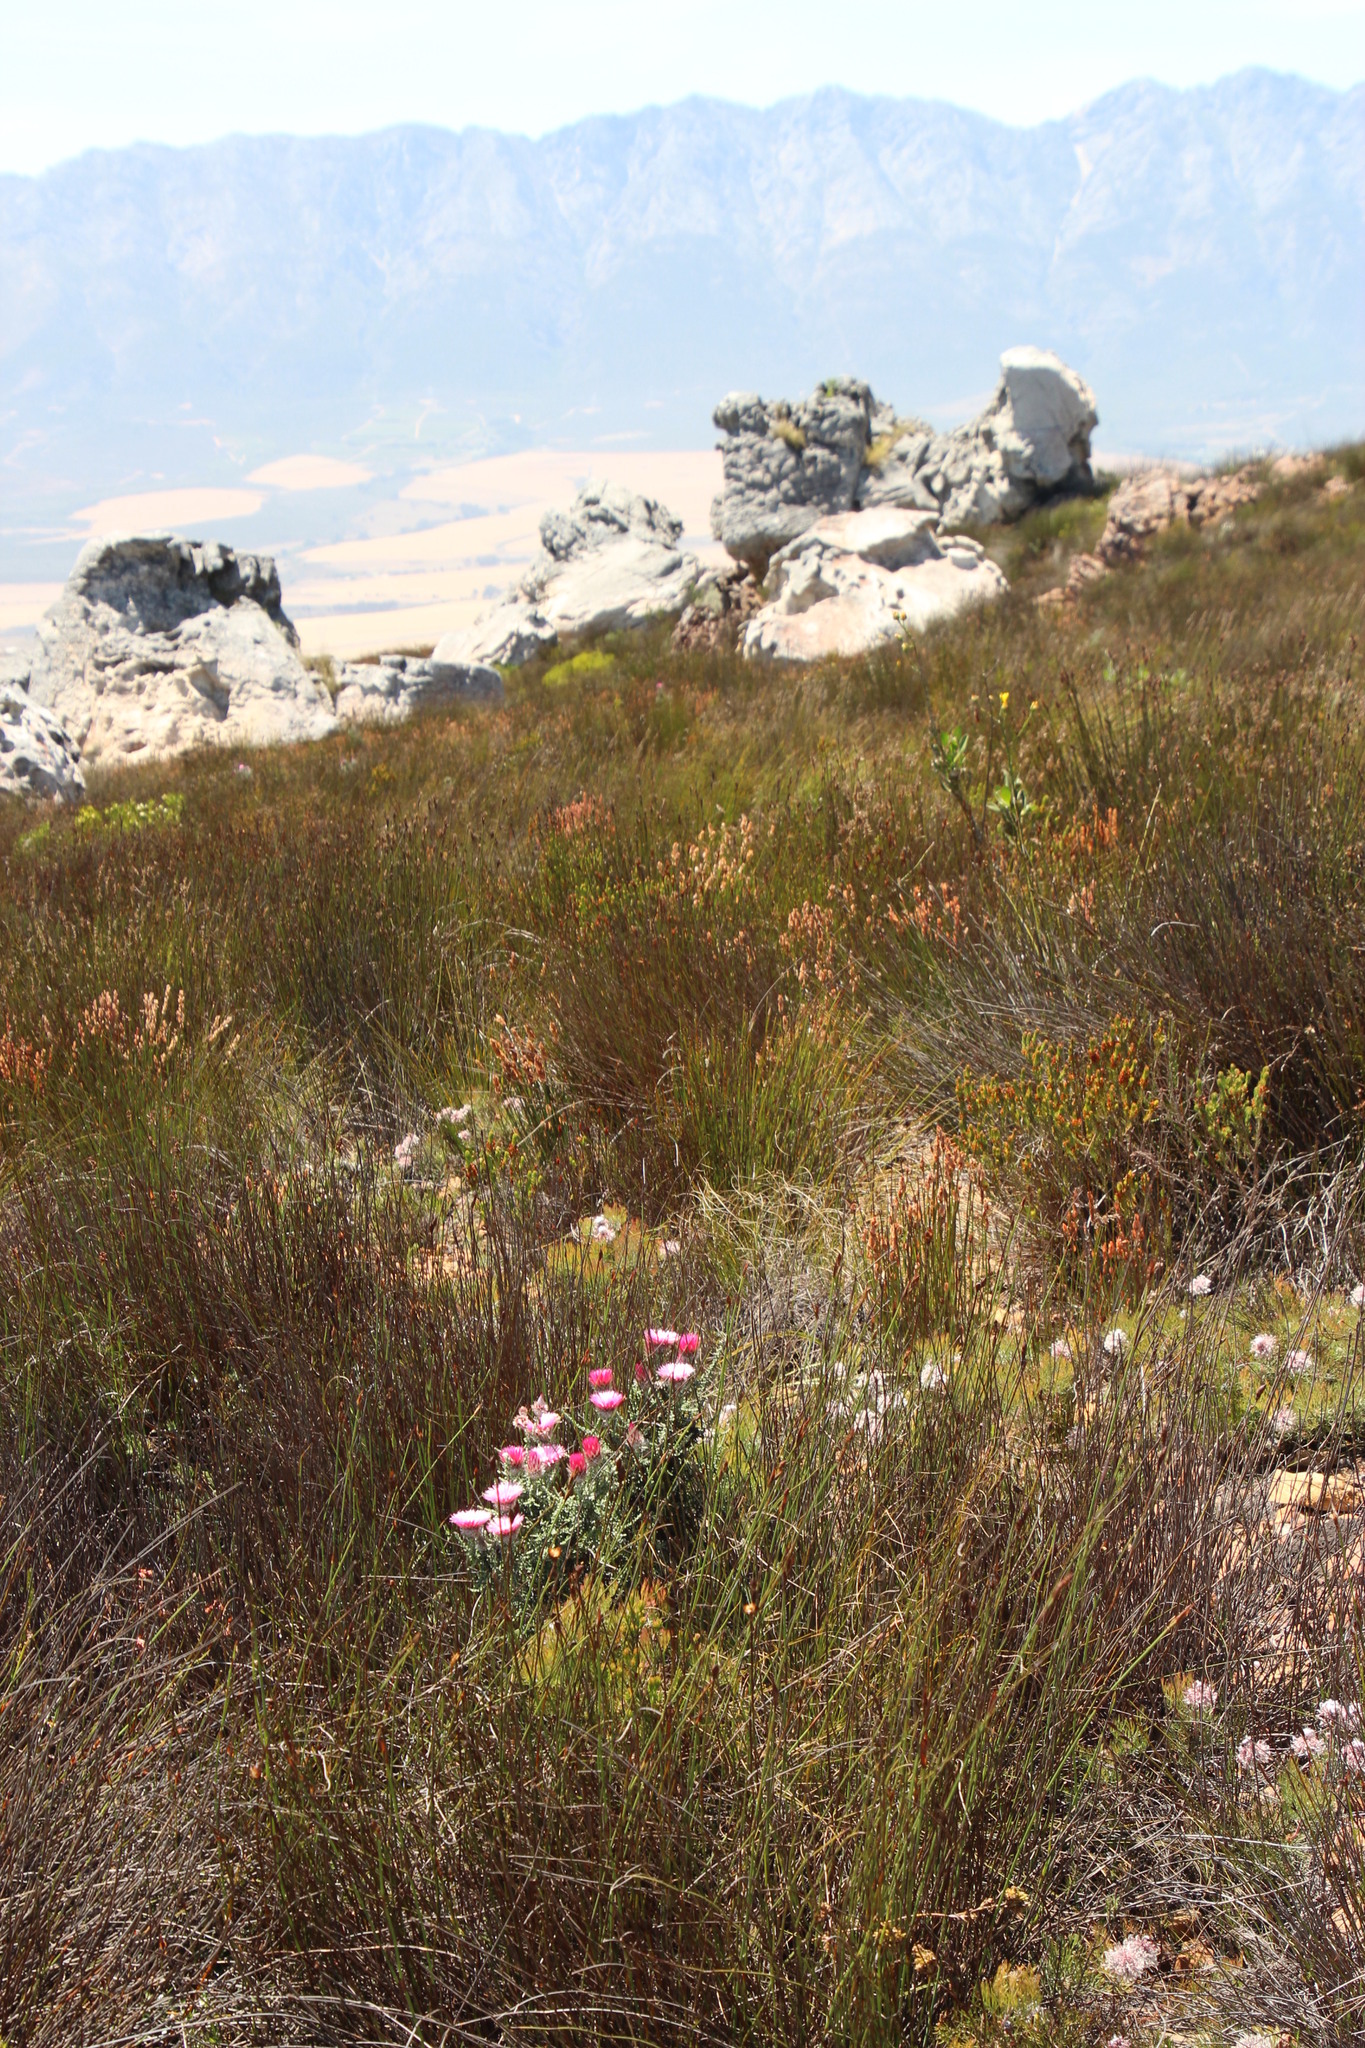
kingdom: Plantae
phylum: Tracheophyta
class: Magnoliopsida
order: Asterales
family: Asteraceae
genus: Phaenocoma
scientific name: Phaenocoma prolifera
